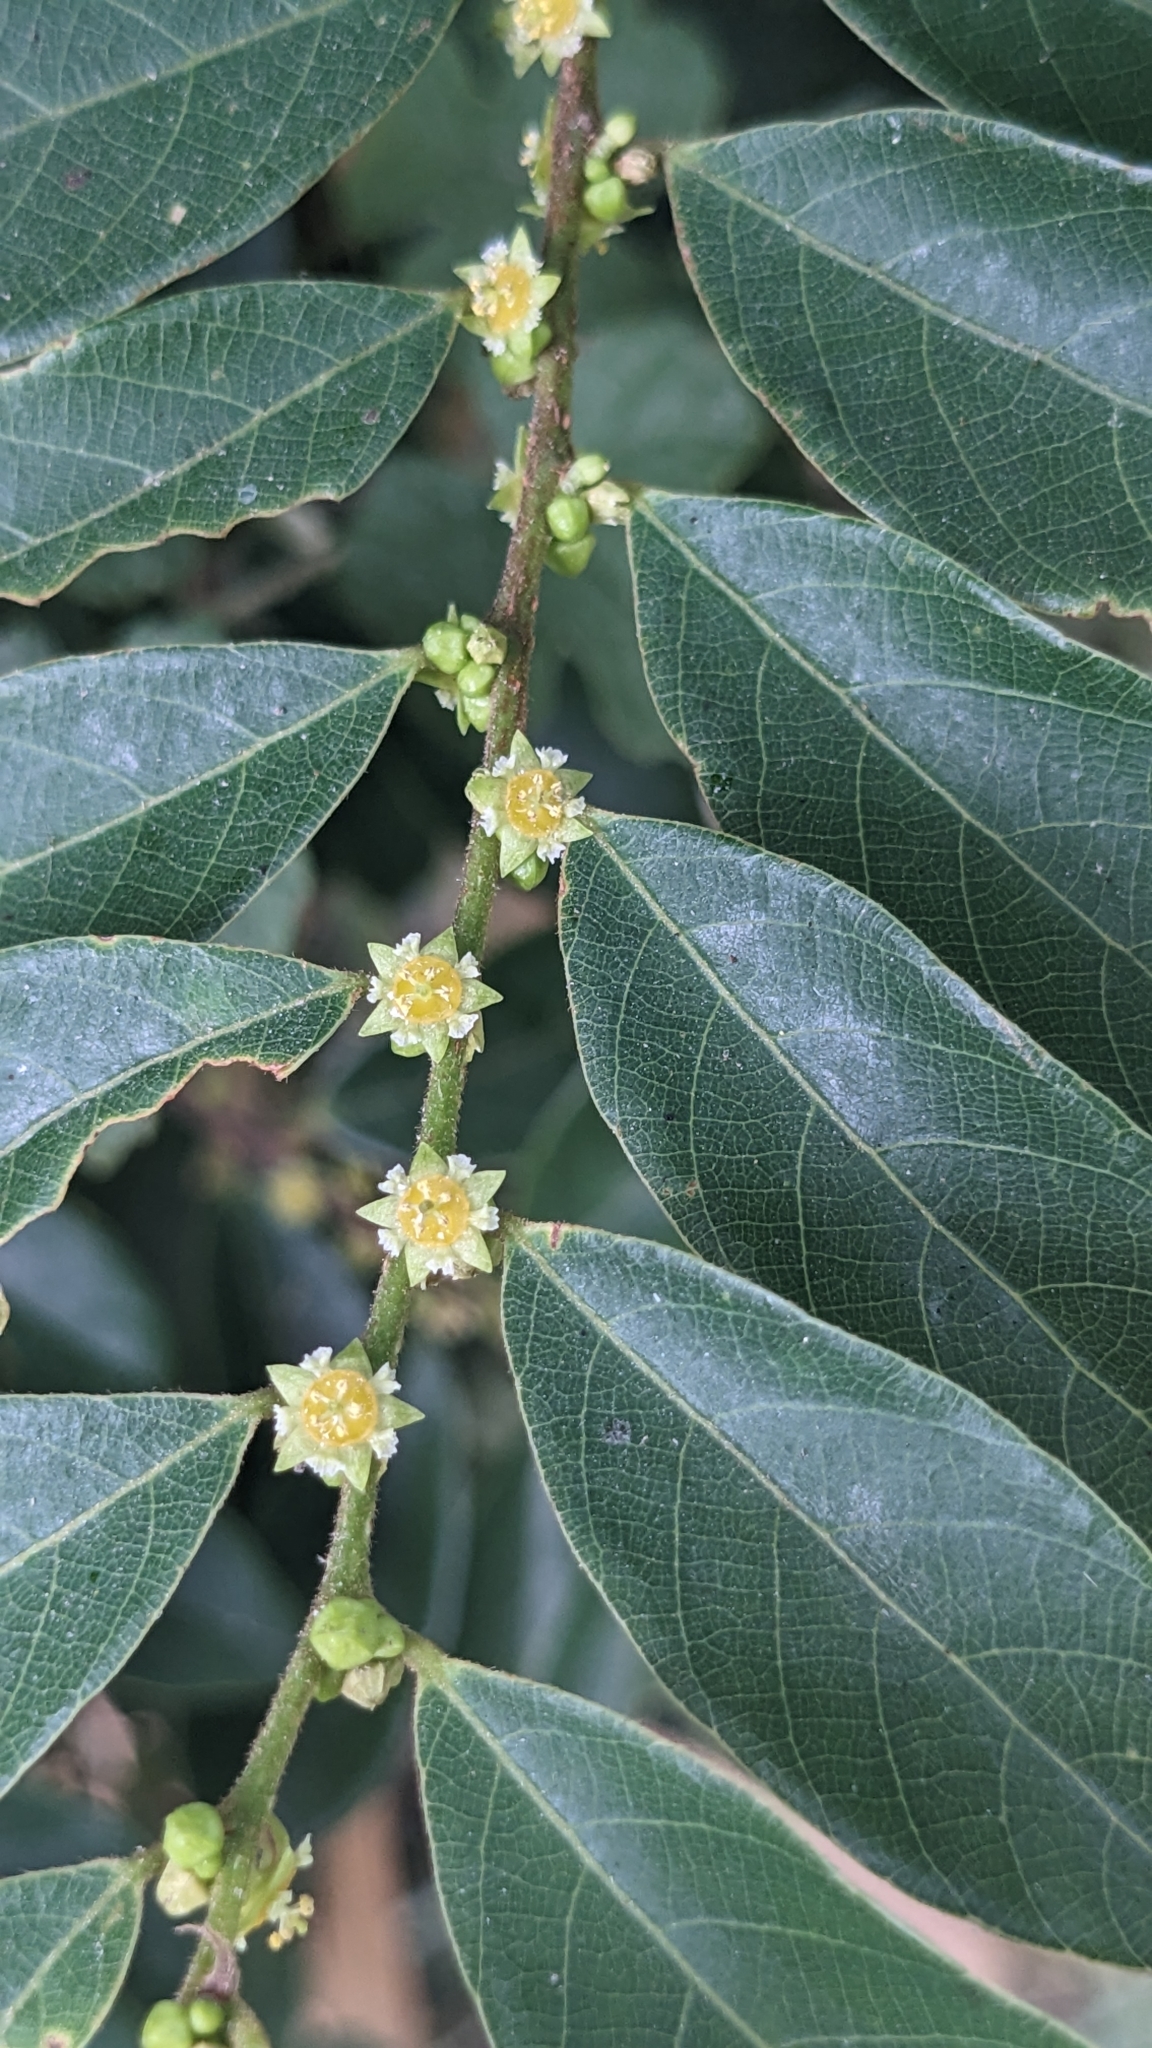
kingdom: Plantae
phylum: Tracheophyta
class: Magnoliopsida
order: Malpighiales
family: Phyllanthaceae
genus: Bridelia
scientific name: Bridelia tomentosa
